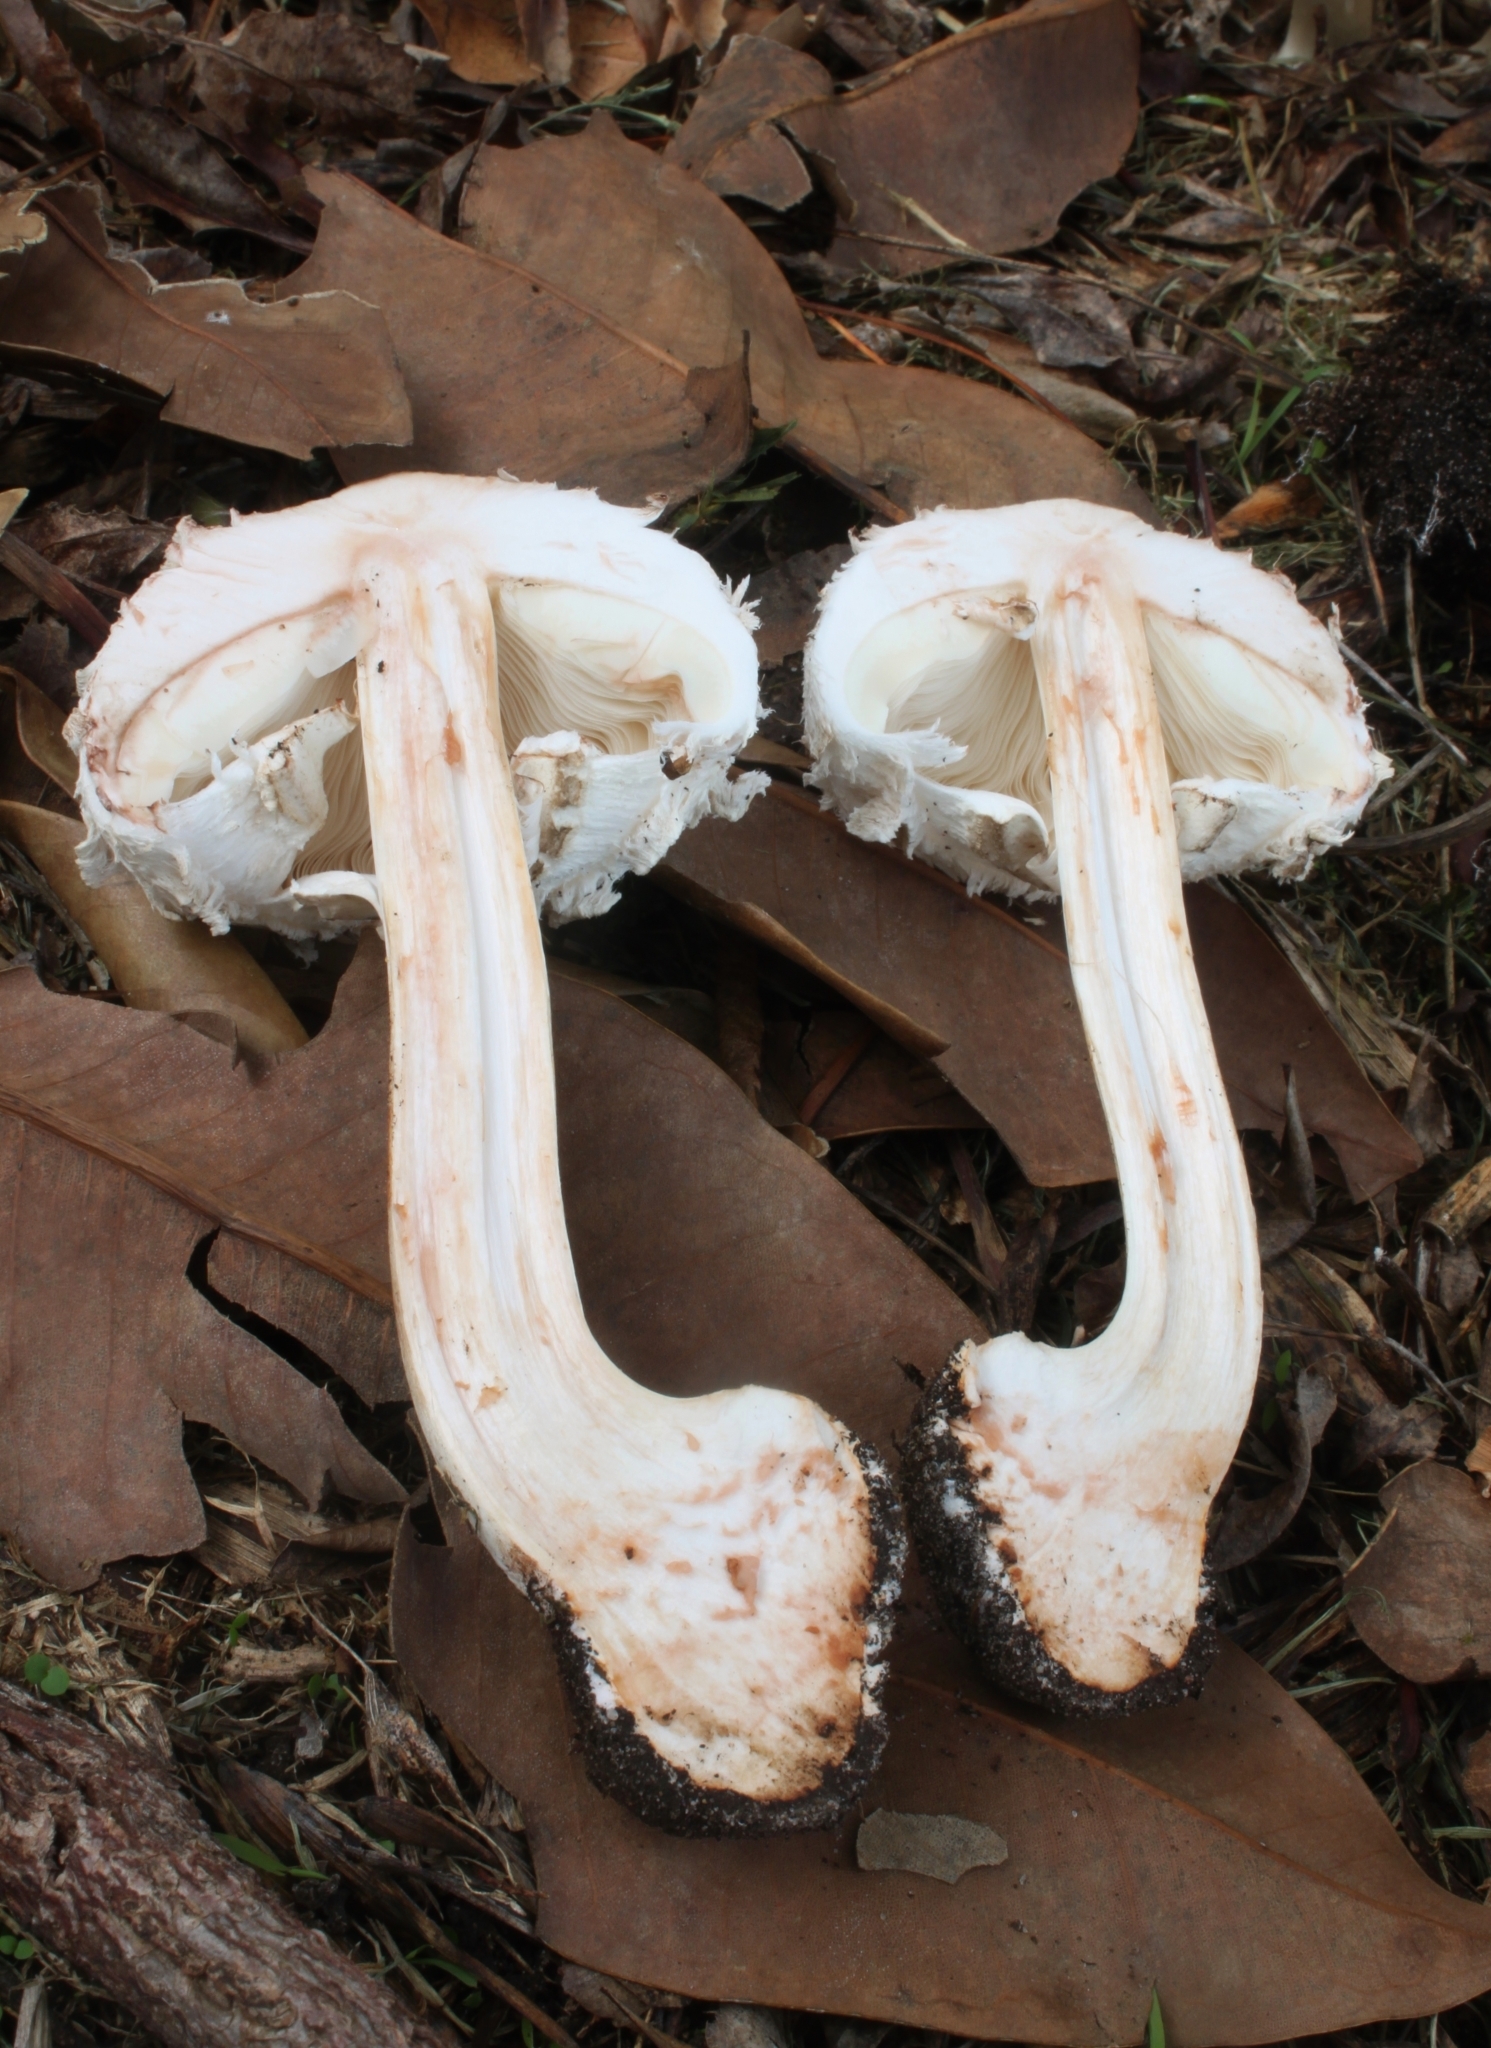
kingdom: Fungi
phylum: Basidiomycota
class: Agaricomycetes
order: Agaricales
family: Agaricaceae
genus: Chlorophyllum
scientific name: Chlorophyllum brunneum
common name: Brown parasol
